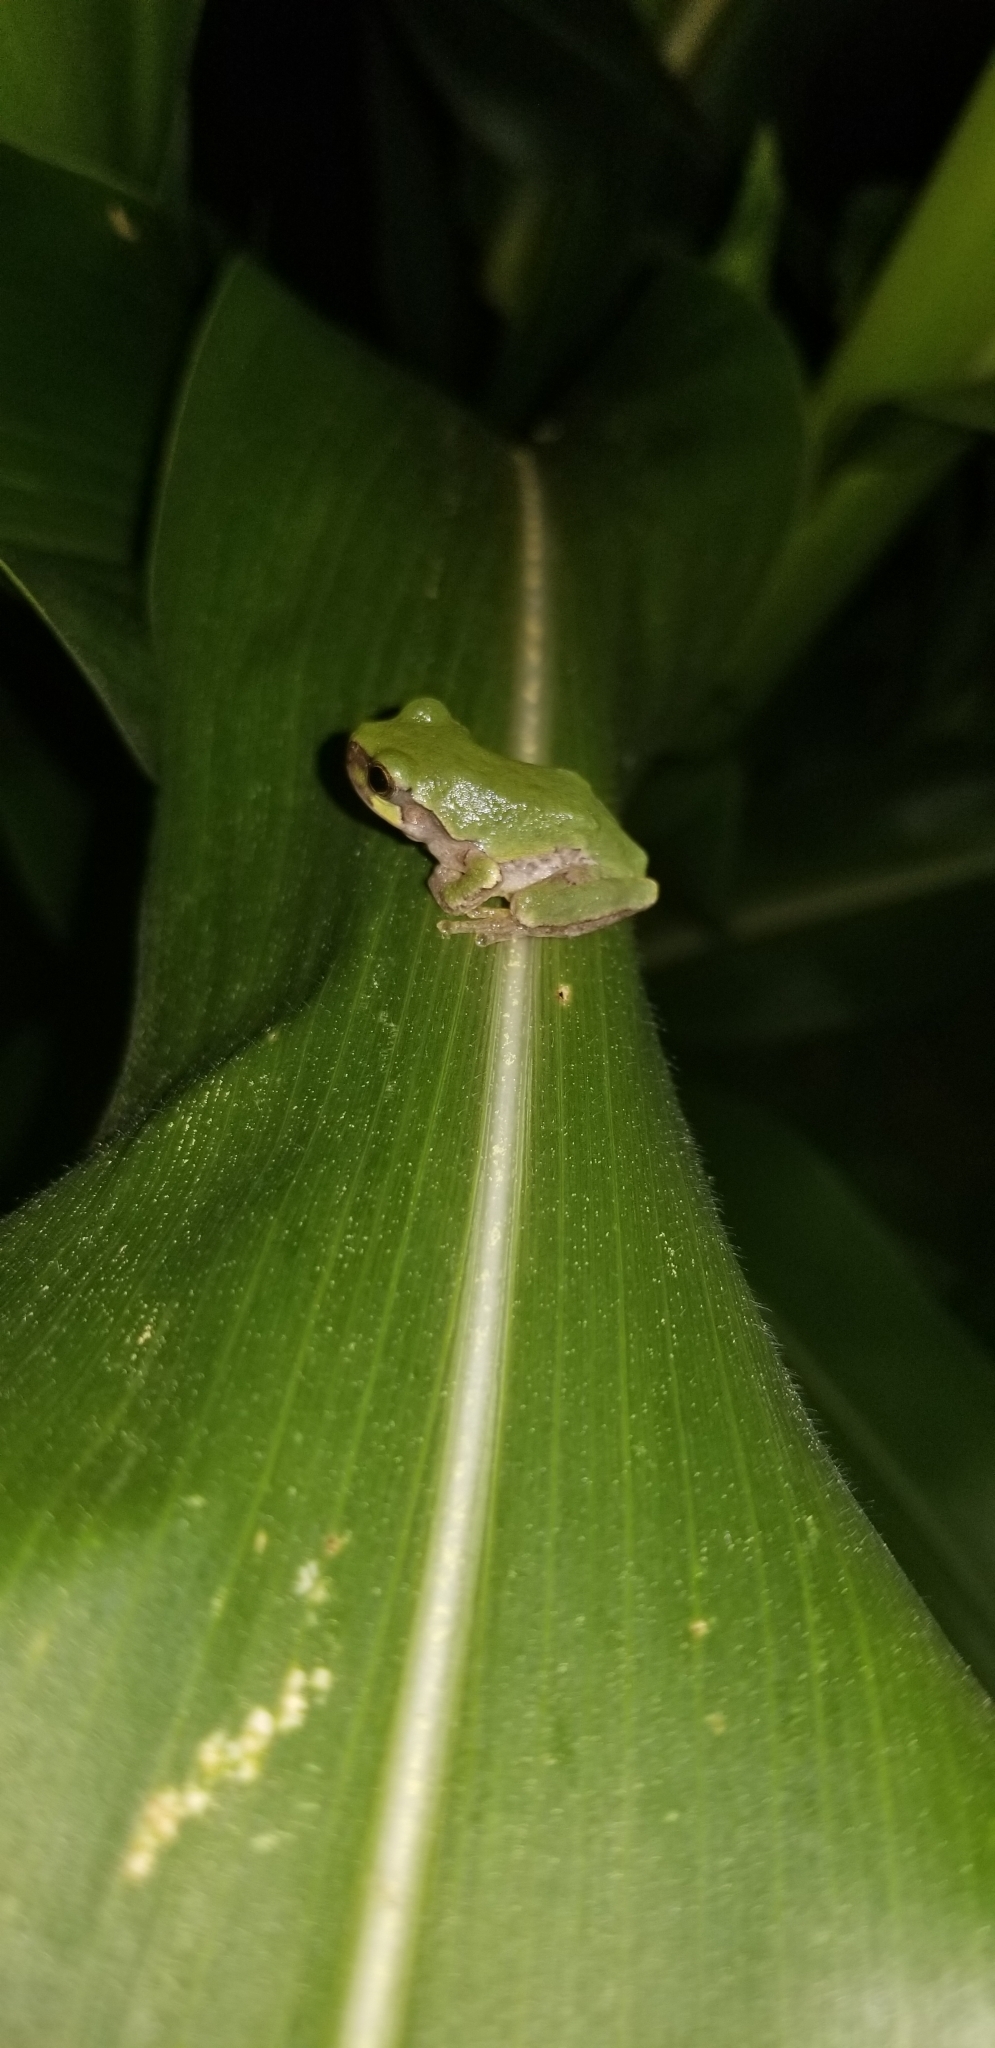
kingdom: Animalia
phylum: Chordata
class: Amphibia
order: Anura
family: Hylidae
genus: Hyla
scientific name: Hyla
